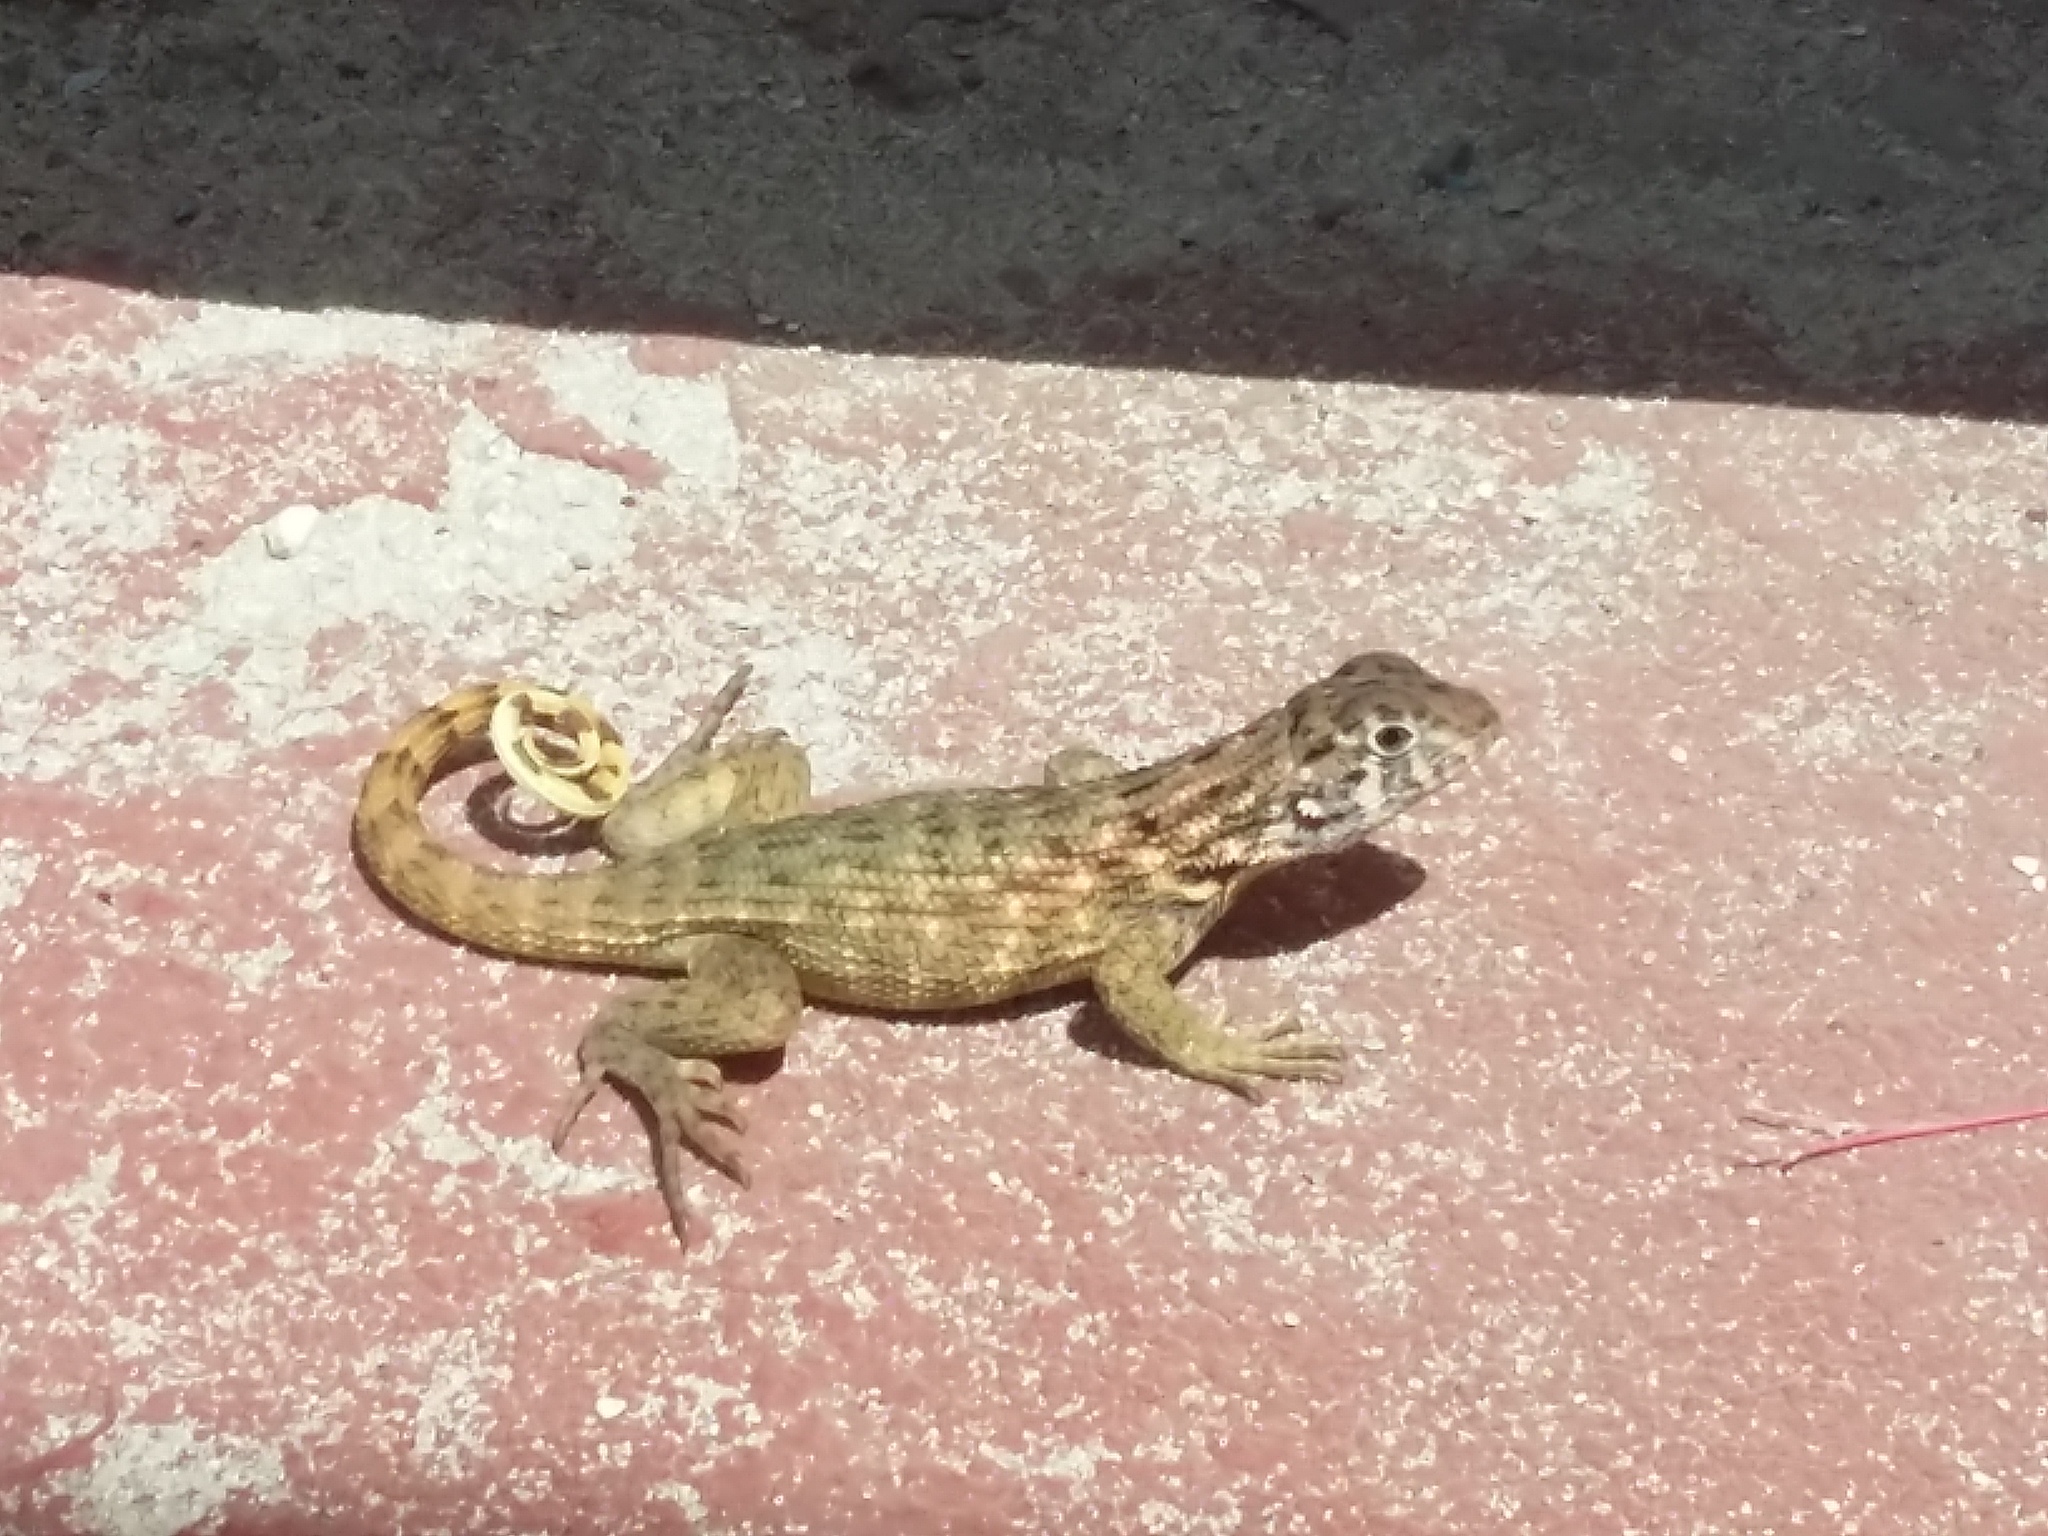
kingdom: Animalia
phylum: Chordata
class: Squamata
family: Leiocephalidae
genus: Leiocephalus
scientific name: Leiocephalus carinatus
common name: Northern curly-tailed lizard
